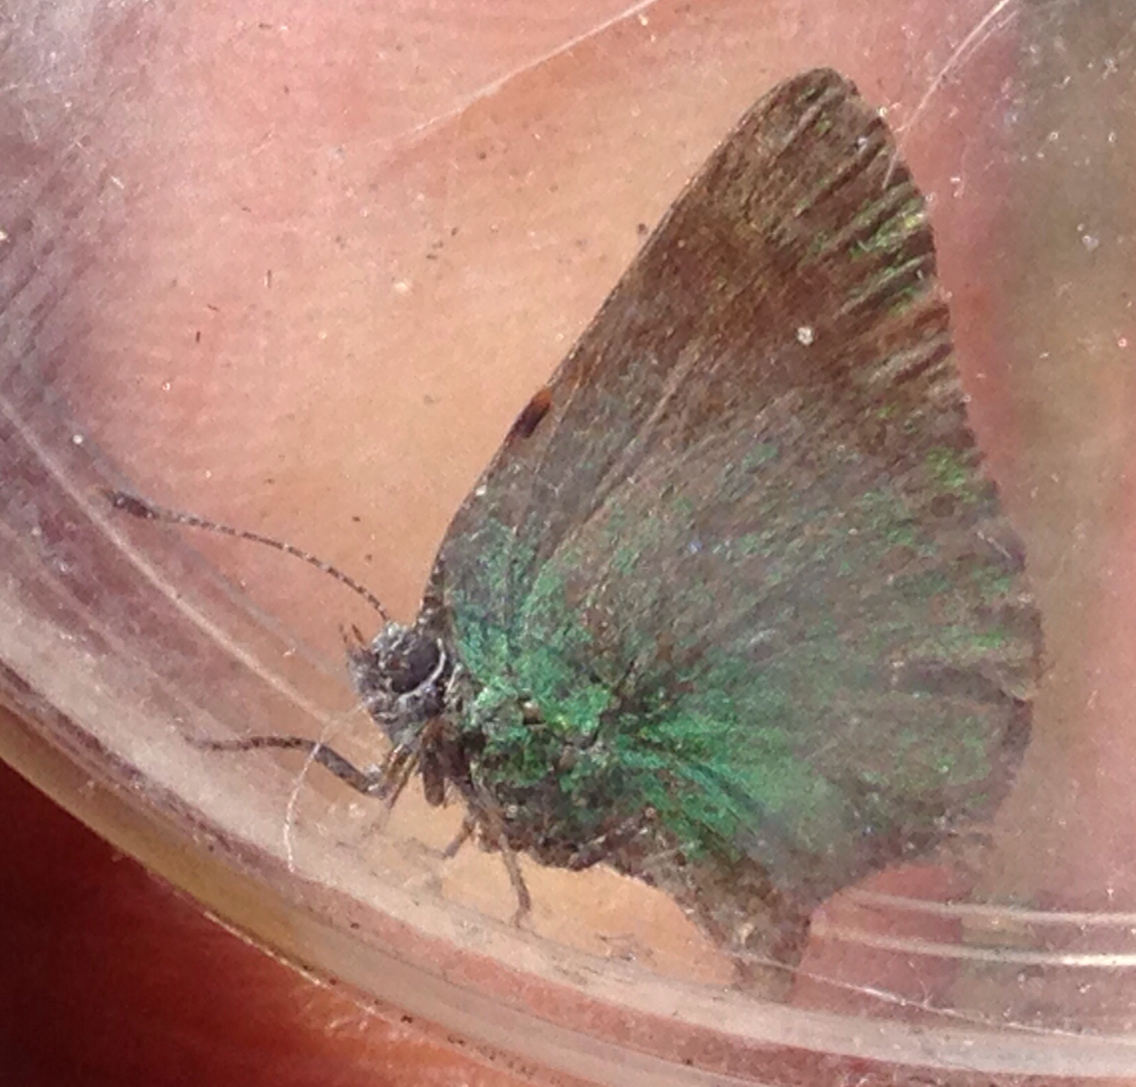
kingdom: Animalia
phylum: Arthropoda
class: Insecta
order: Lepidoptera
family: Lycaenidae
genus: Callophrys
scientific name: Callophrys dumetorum
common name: Bramble hairstreak
